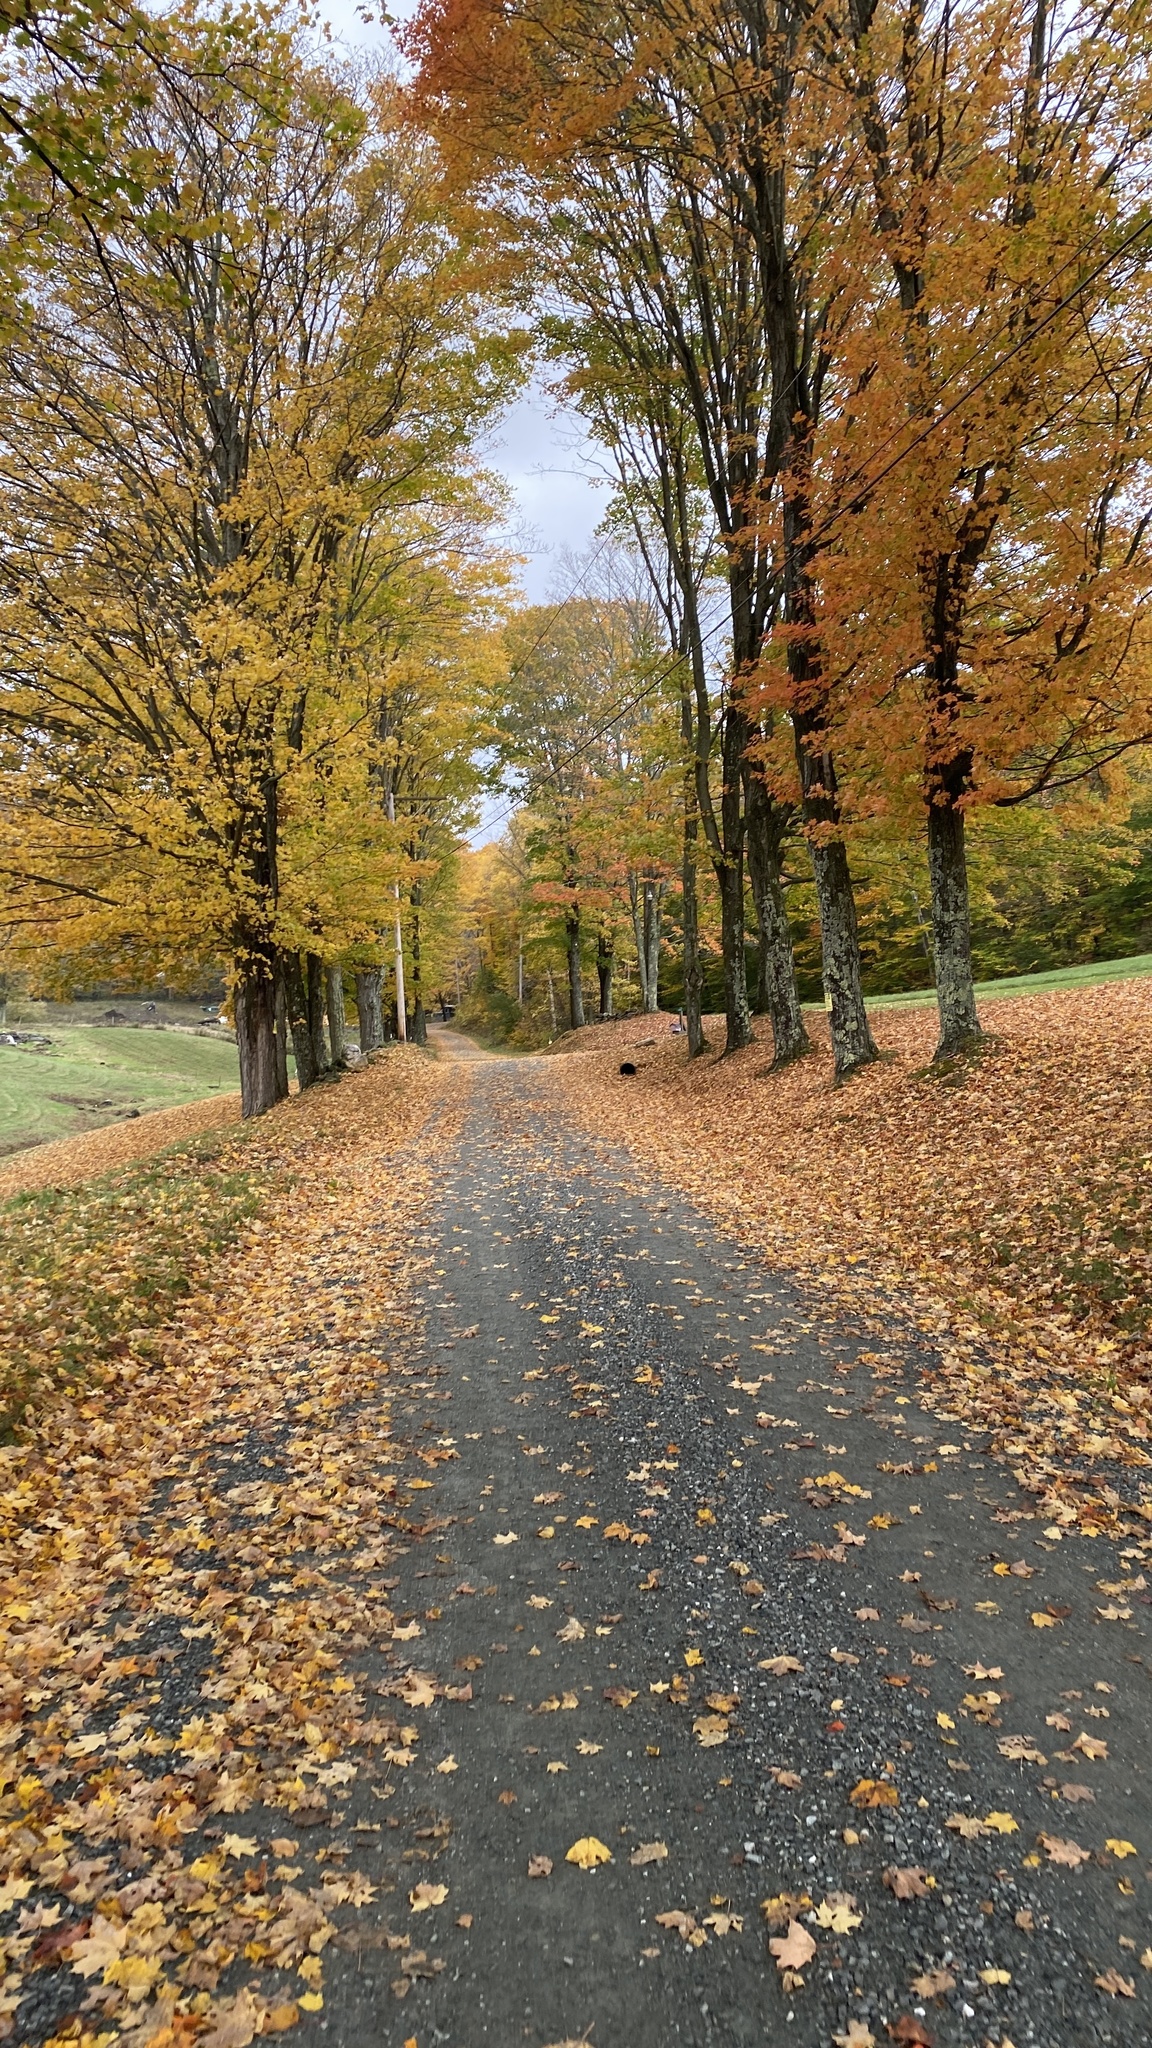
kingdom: Plantae
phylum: Tracheophyta
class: Magnoliopsida
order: Sapindales
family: Sapindaceae
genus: Acer
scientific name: Acer saccharum
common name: Sugar maple
